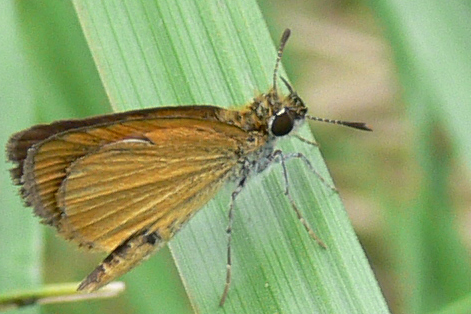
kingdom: Animalia
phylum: Arthropoda
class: Insecta
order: Lepidoptera
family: Hesperiidae
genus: Ancyloxypha
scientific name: Ancyloxypha numitor
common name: Least skipper
